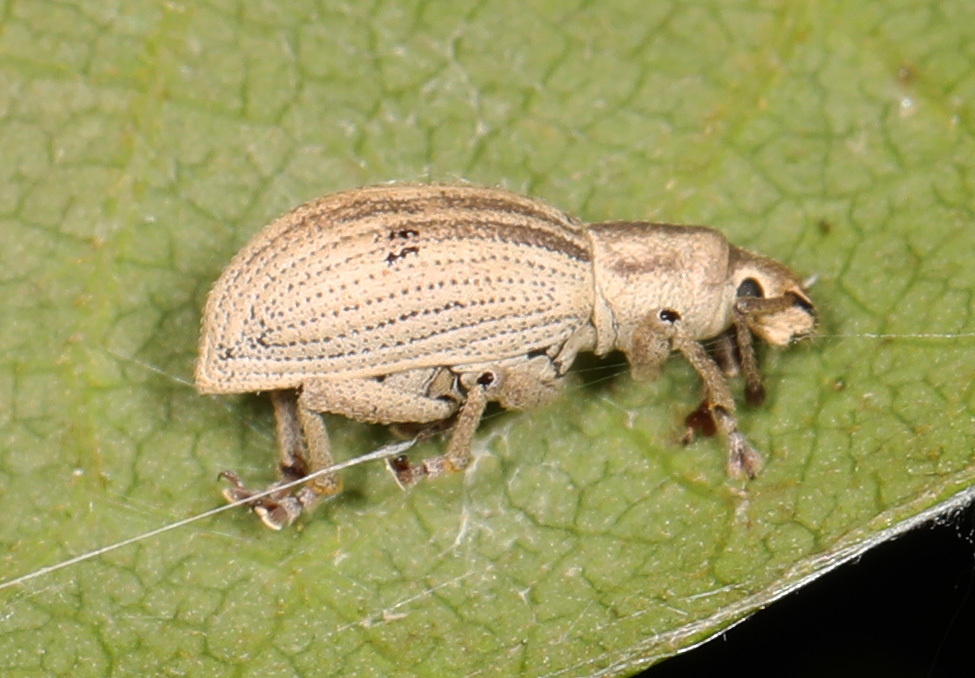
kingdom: Animalia
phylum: Arthropoda
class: Insecta
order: Coleoptera
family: Curculionidae
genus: Aphrastus
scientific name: Aphrastus taeniatus
